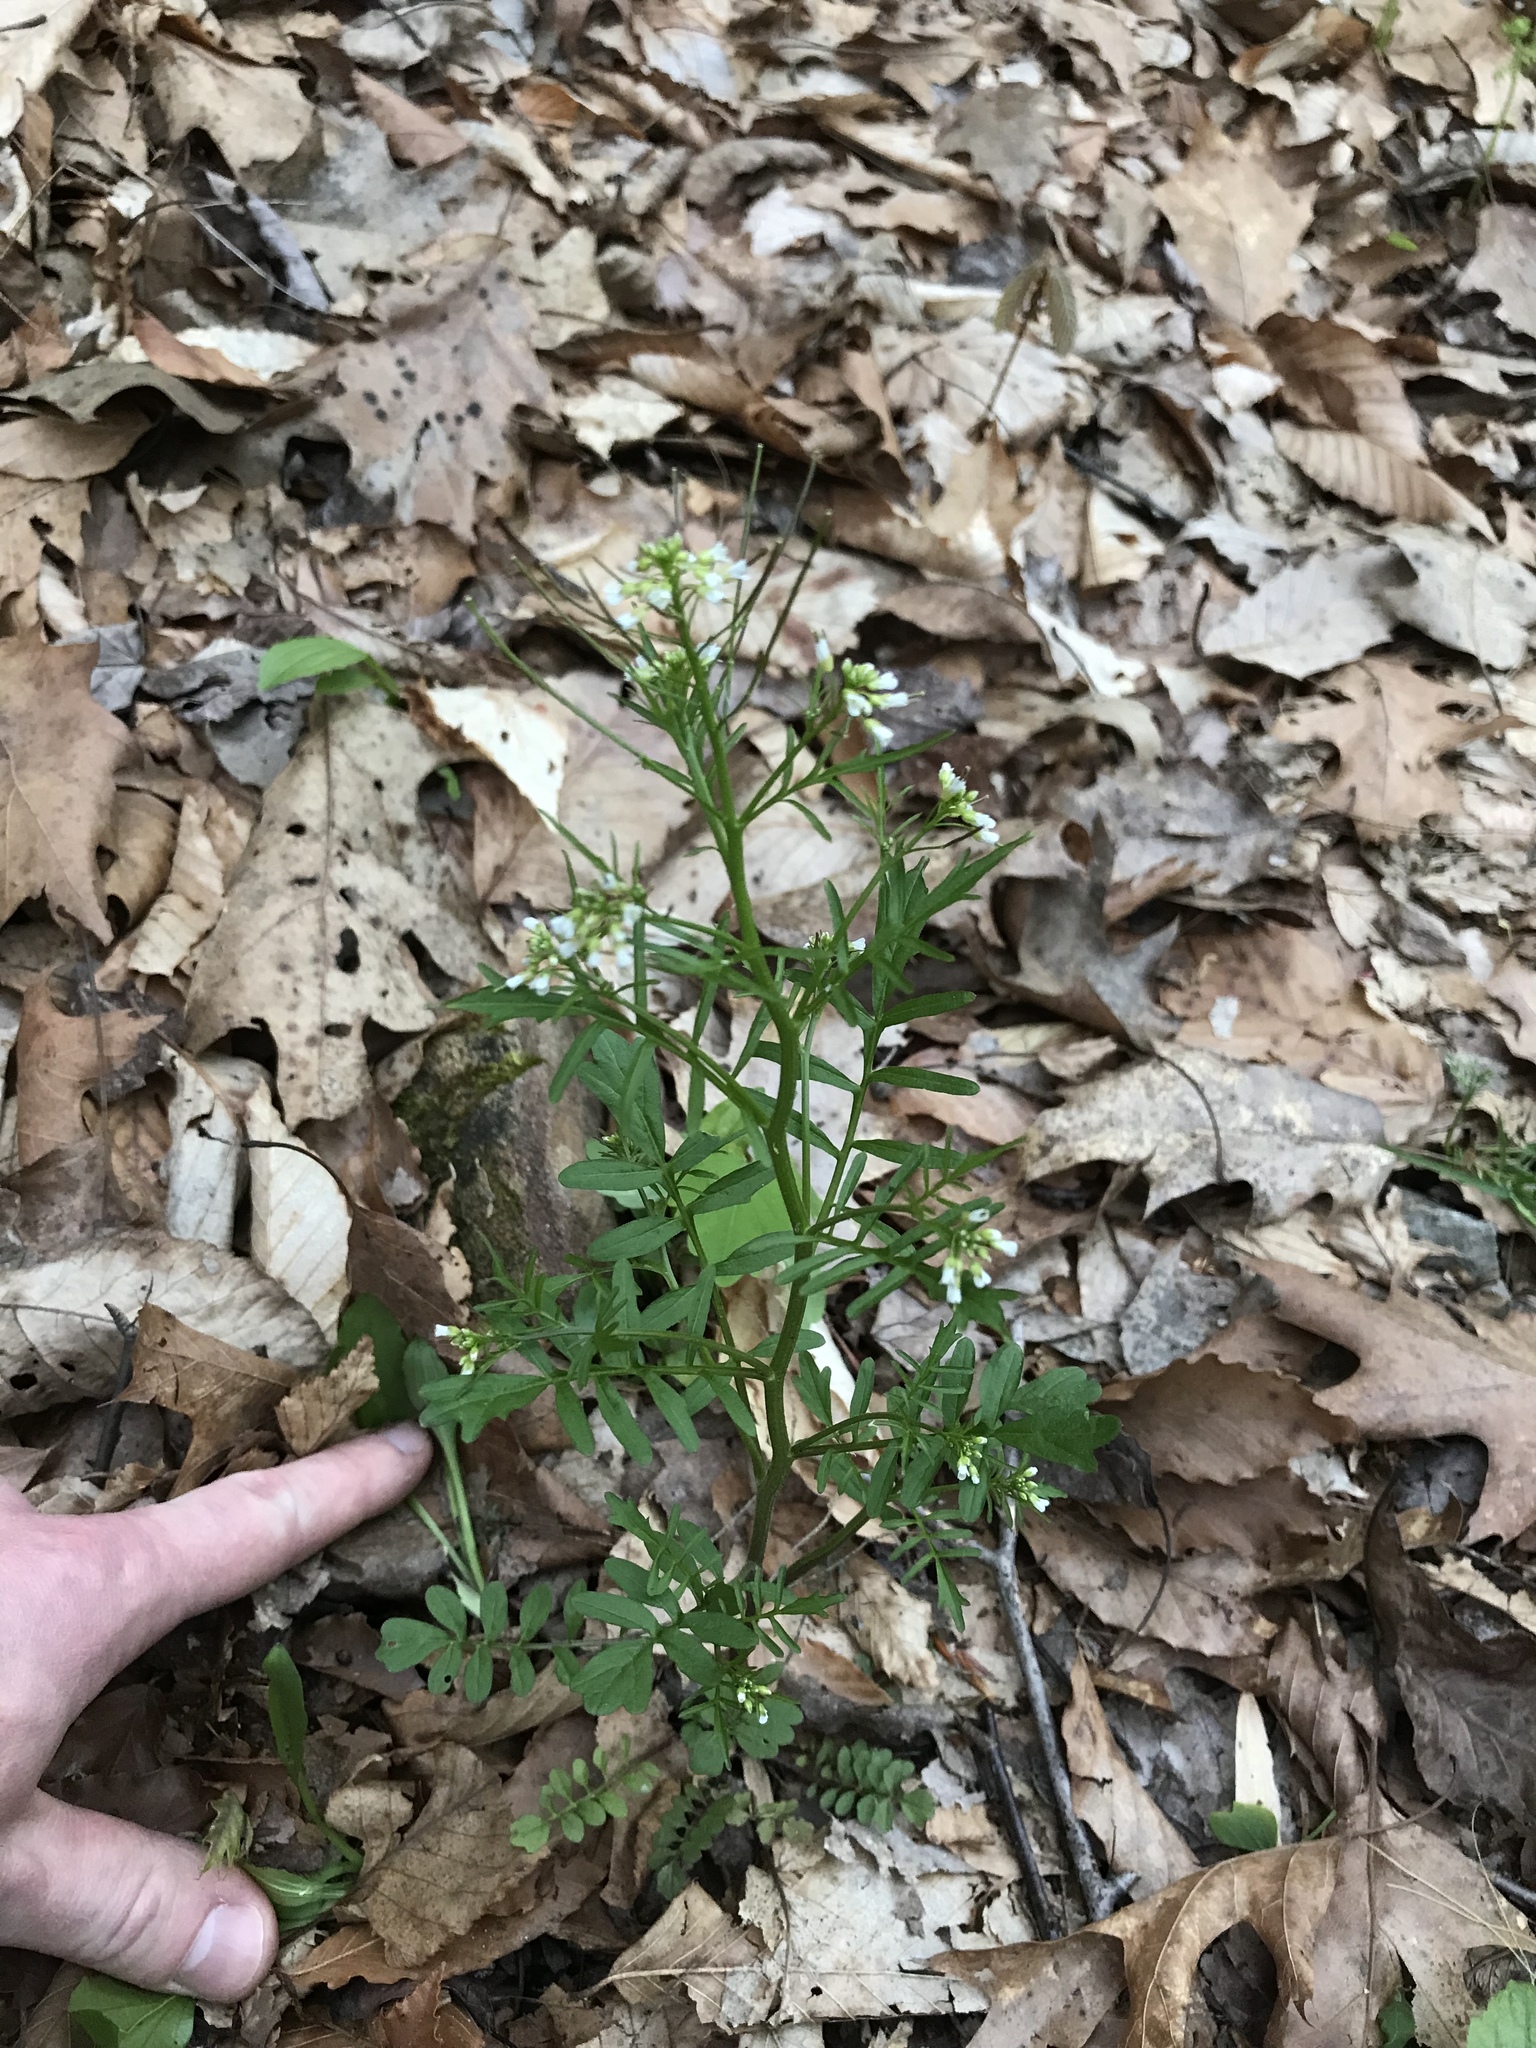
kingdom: Plantae
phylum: Tracheophyta
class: Magnoliopsida
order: Brassicales
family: Brassicaceae
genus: Cardamine
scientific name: Cardamine pensylvanica
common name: Pennsylvania bittercress
